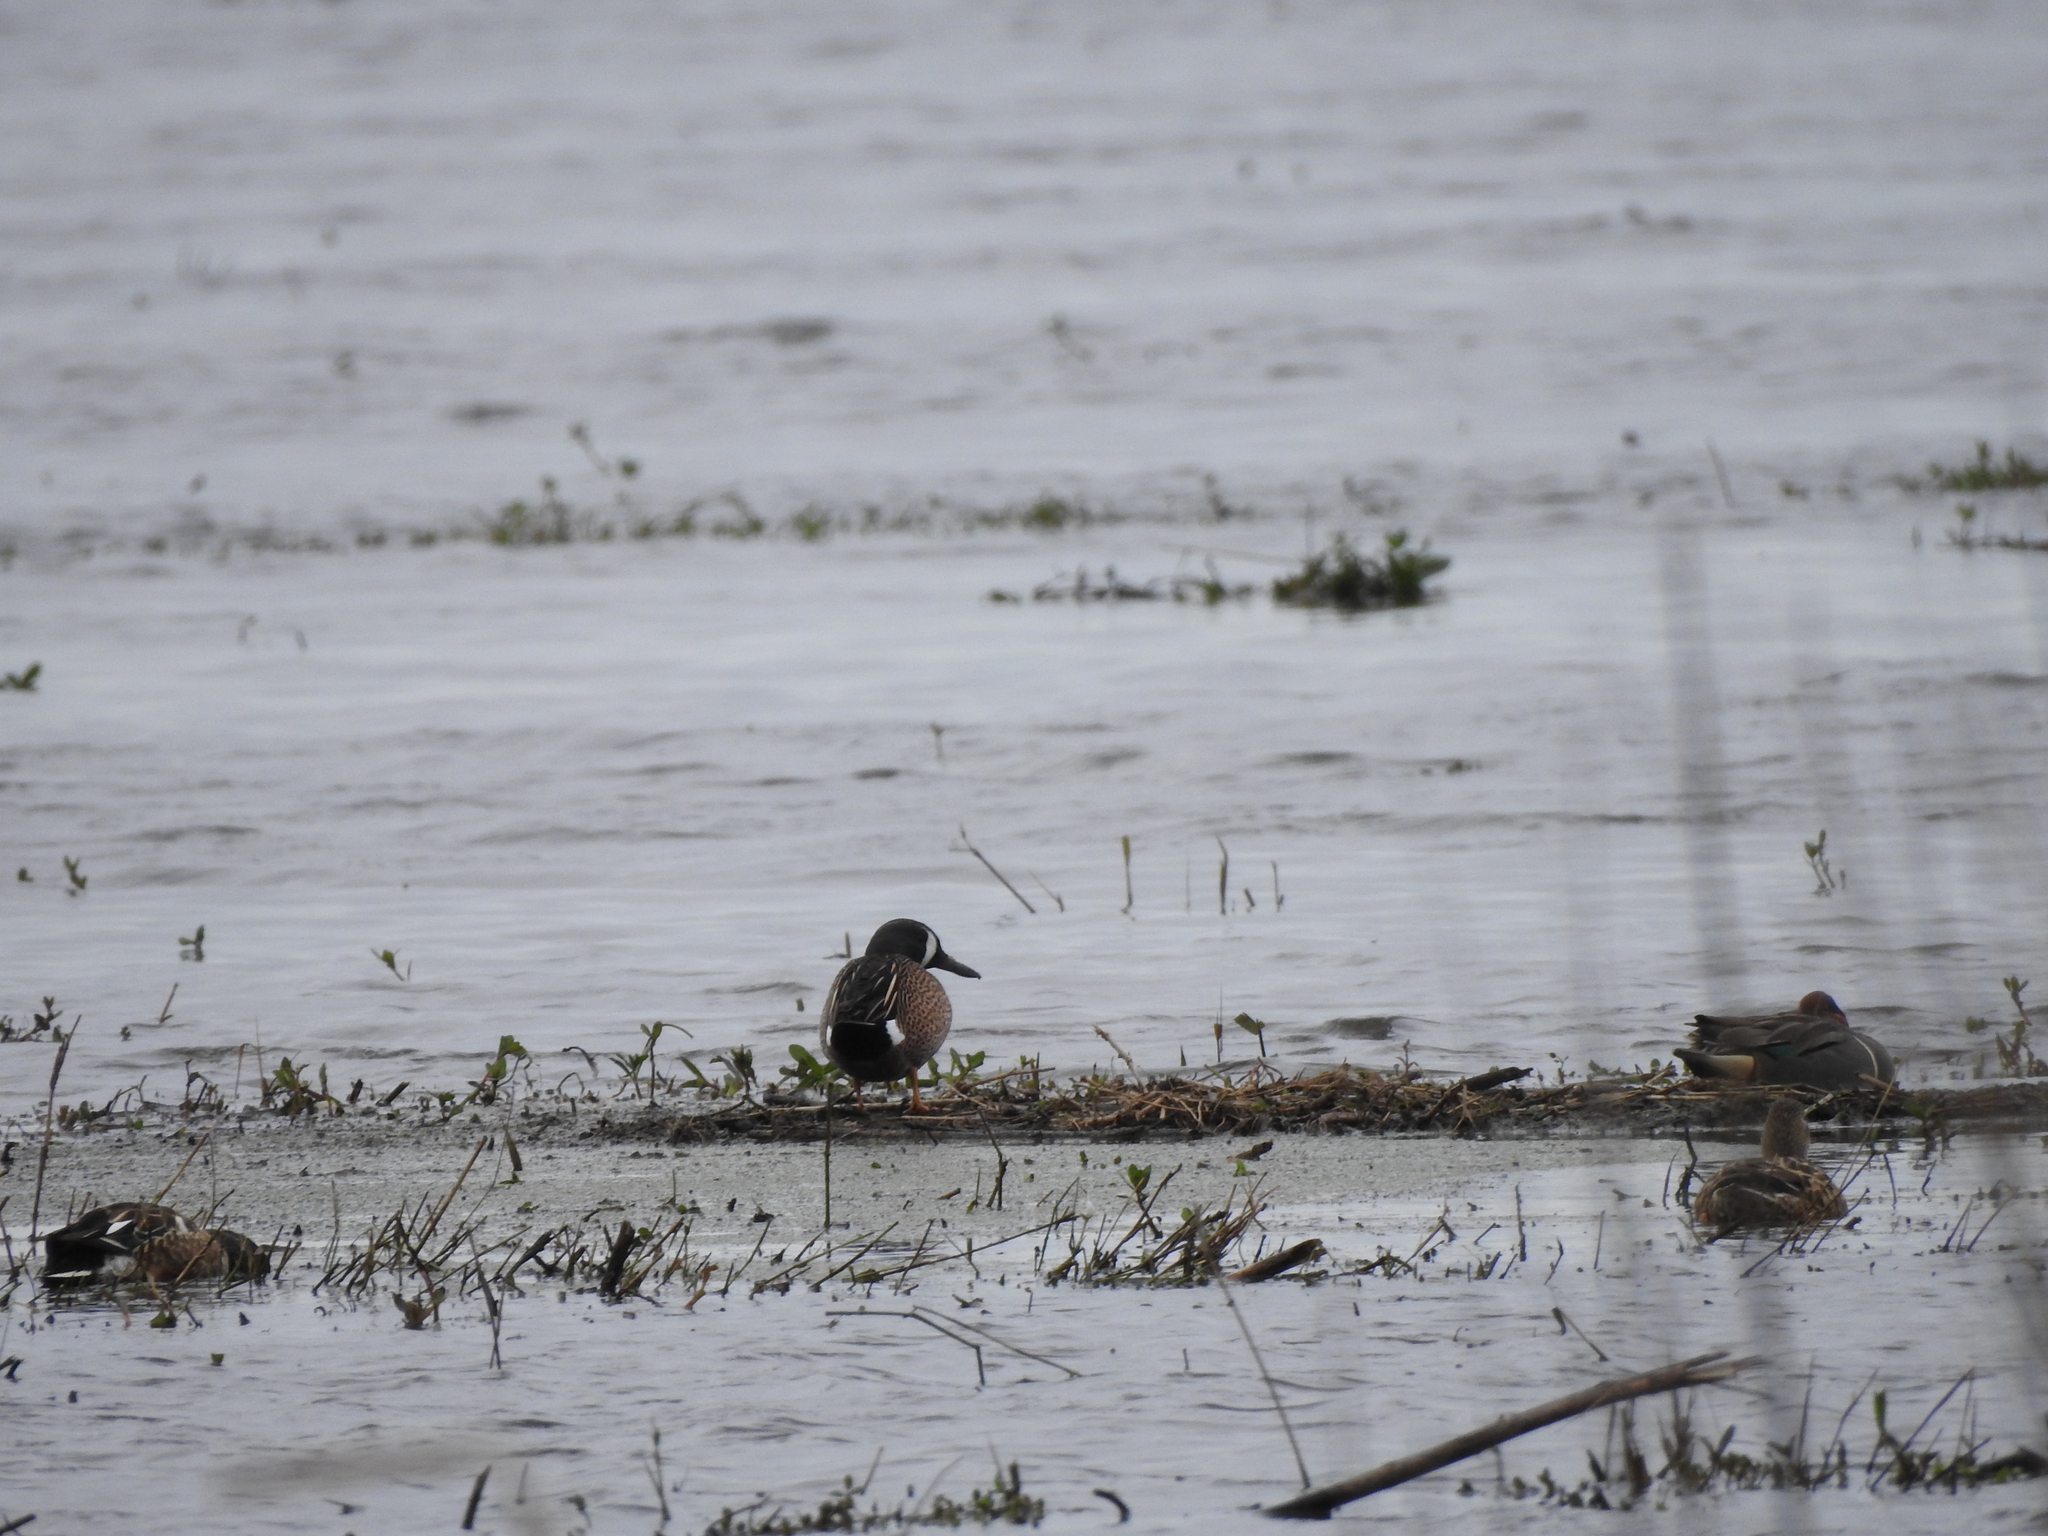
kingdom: Animalia
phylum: Chordata
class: Aves
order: Anseriformes
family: Anatidae
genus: Spatula
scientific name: Spatula discors
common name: Blue-winged teal
